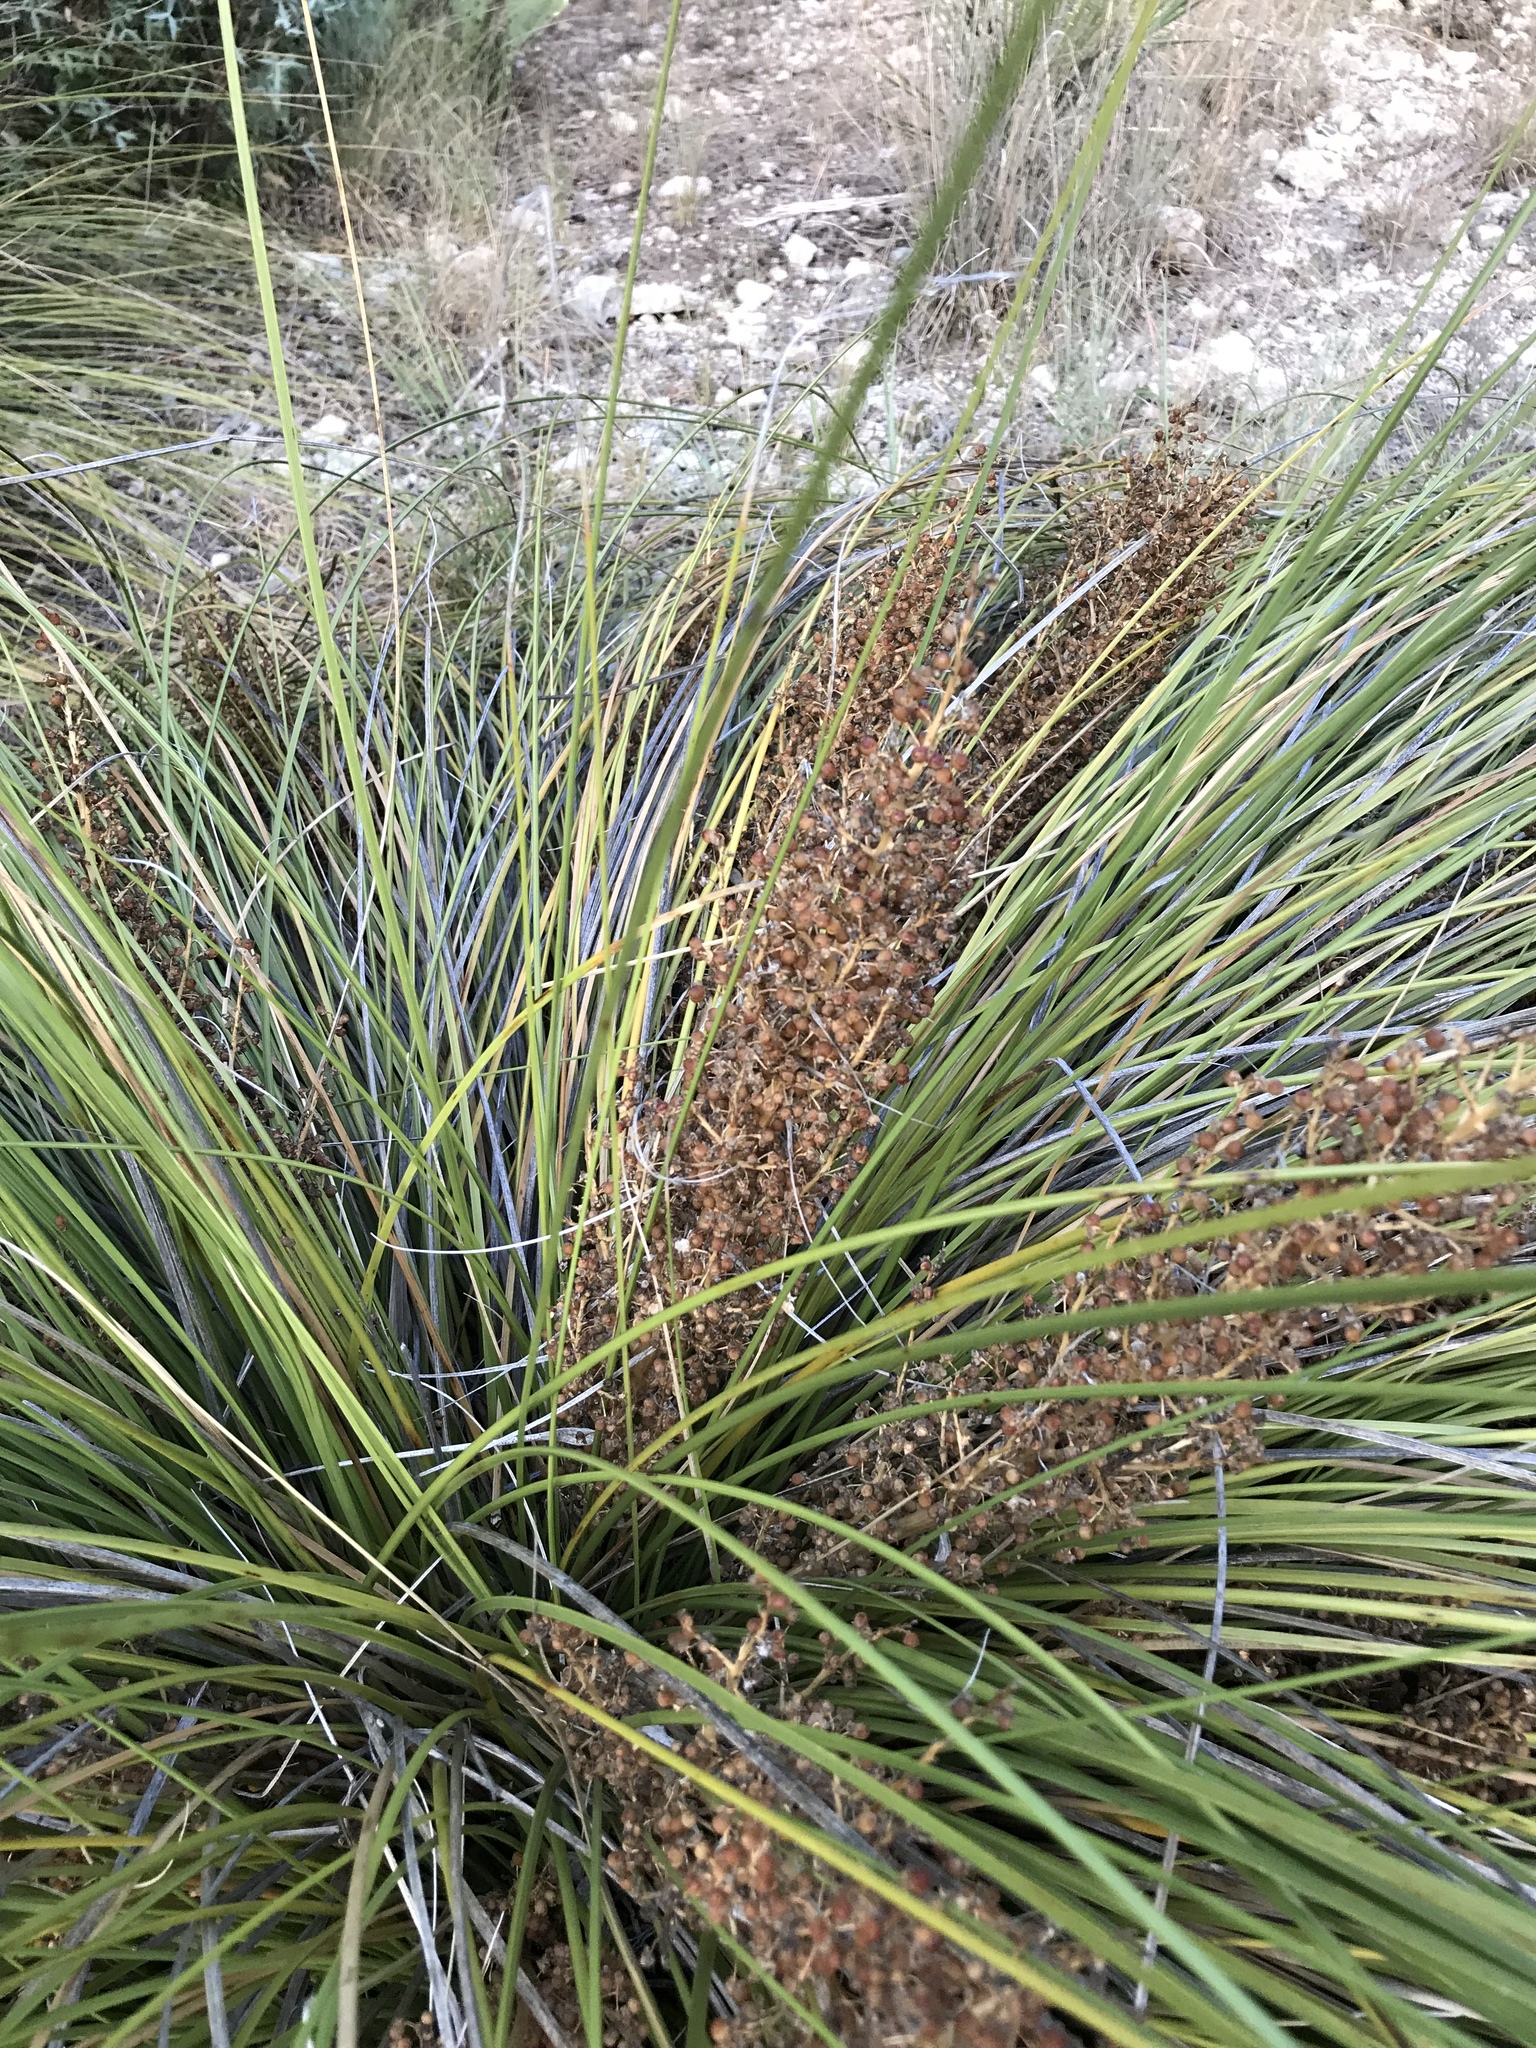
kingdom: Plantae
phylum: Tracheophyta
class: Liliopsida
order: Asparagales
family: Asparagaceae
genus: Nolina
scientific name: Nolina texana
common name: Texas sacahuiste
